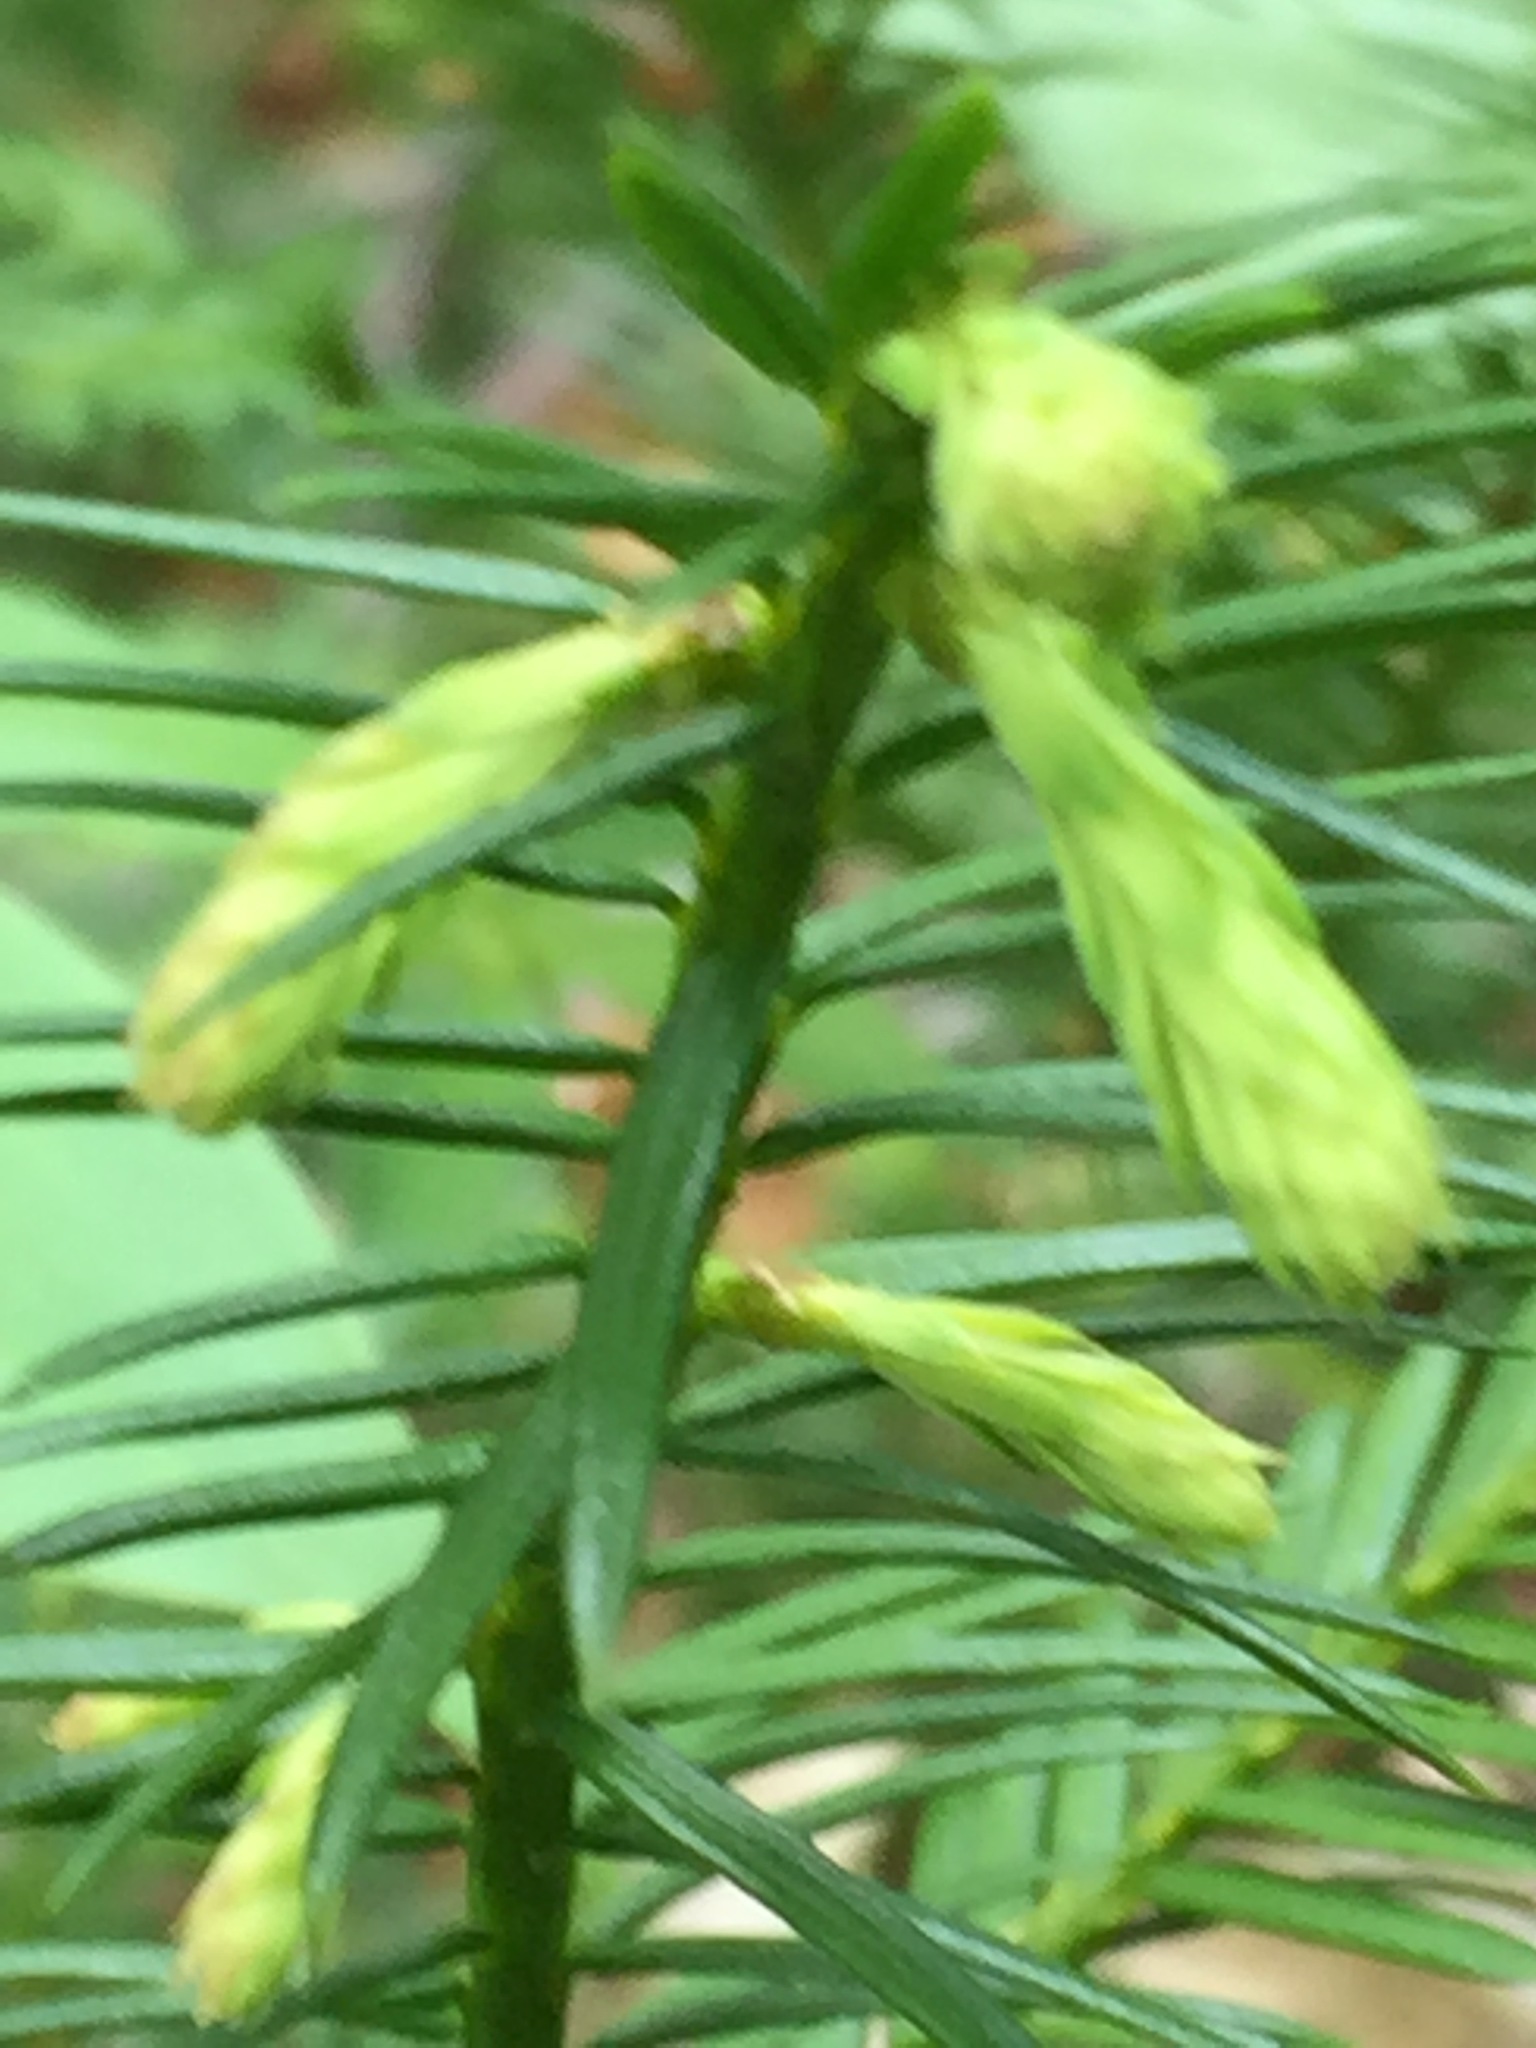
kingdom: Plantae
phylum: Tracheophyta
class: Pinopsida
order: Pinales
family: Taxaceae
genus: Taxus
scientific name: Taxus canadensis
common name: American yew
